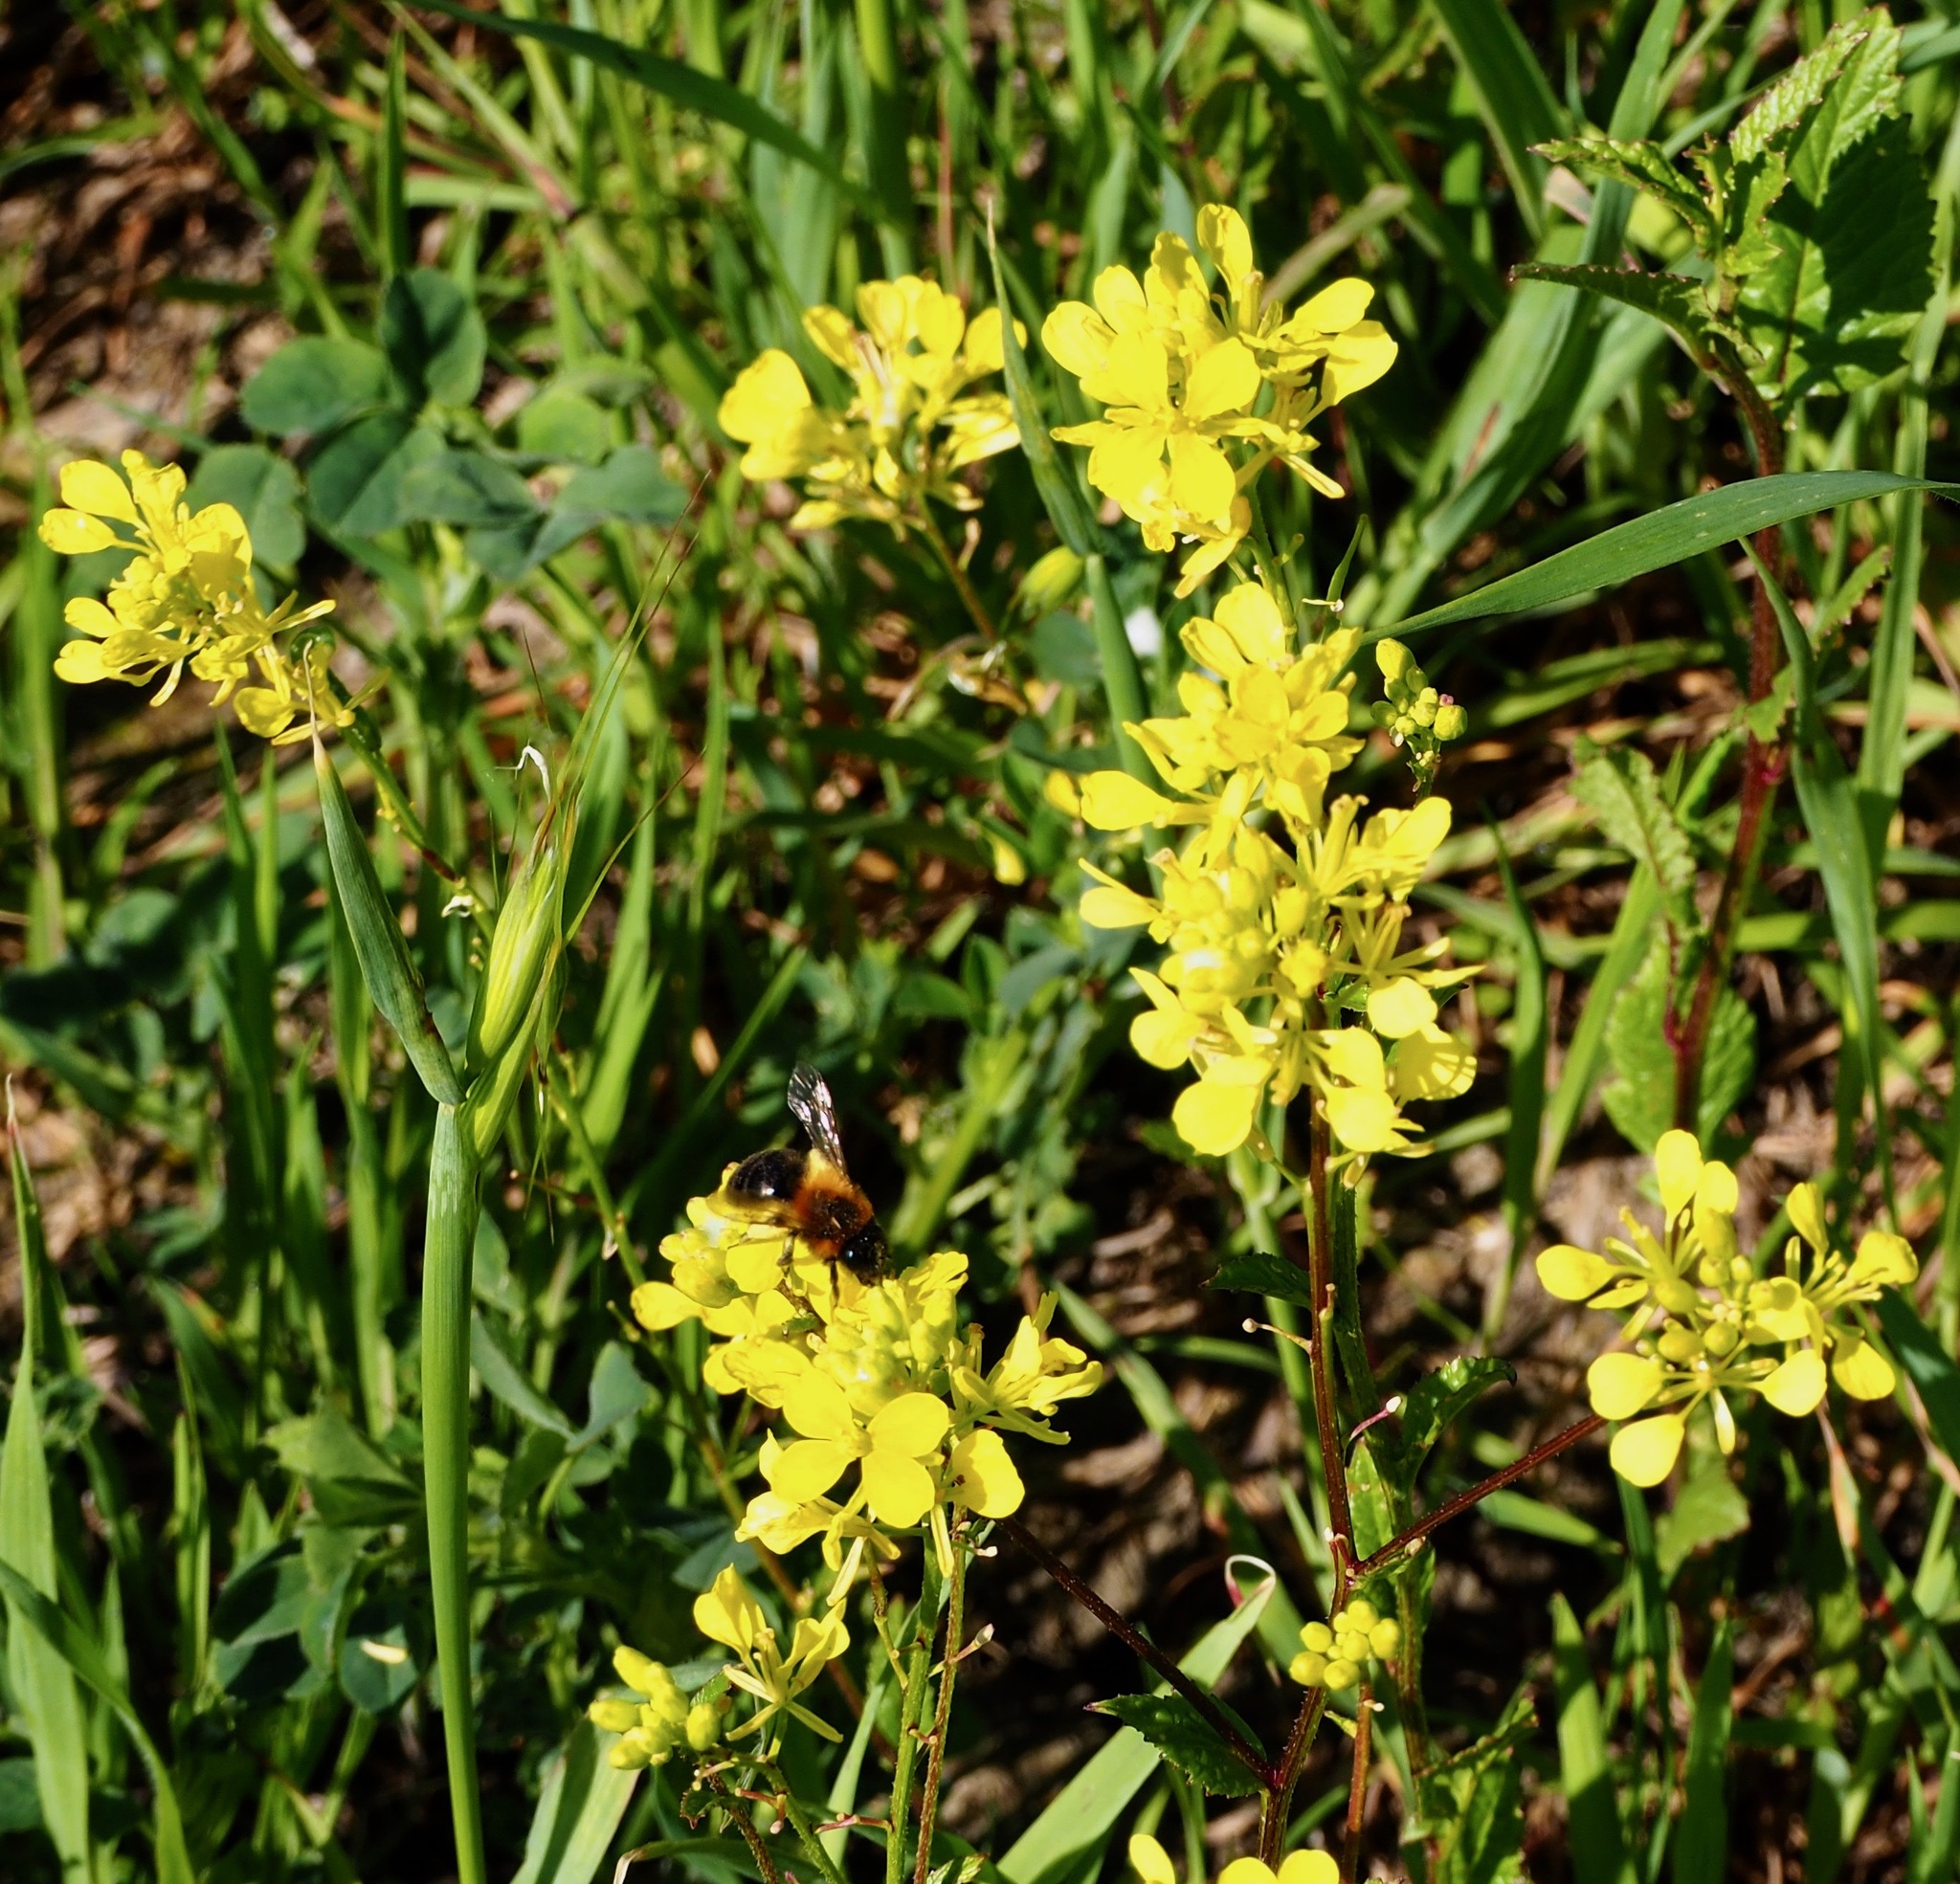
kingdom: Animalia
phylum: Arthropoda
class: Insecta
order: Hymenoptera
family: Andrenidae
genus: Andrena
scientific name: Andrena thoracica
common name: Cliff mining bee
